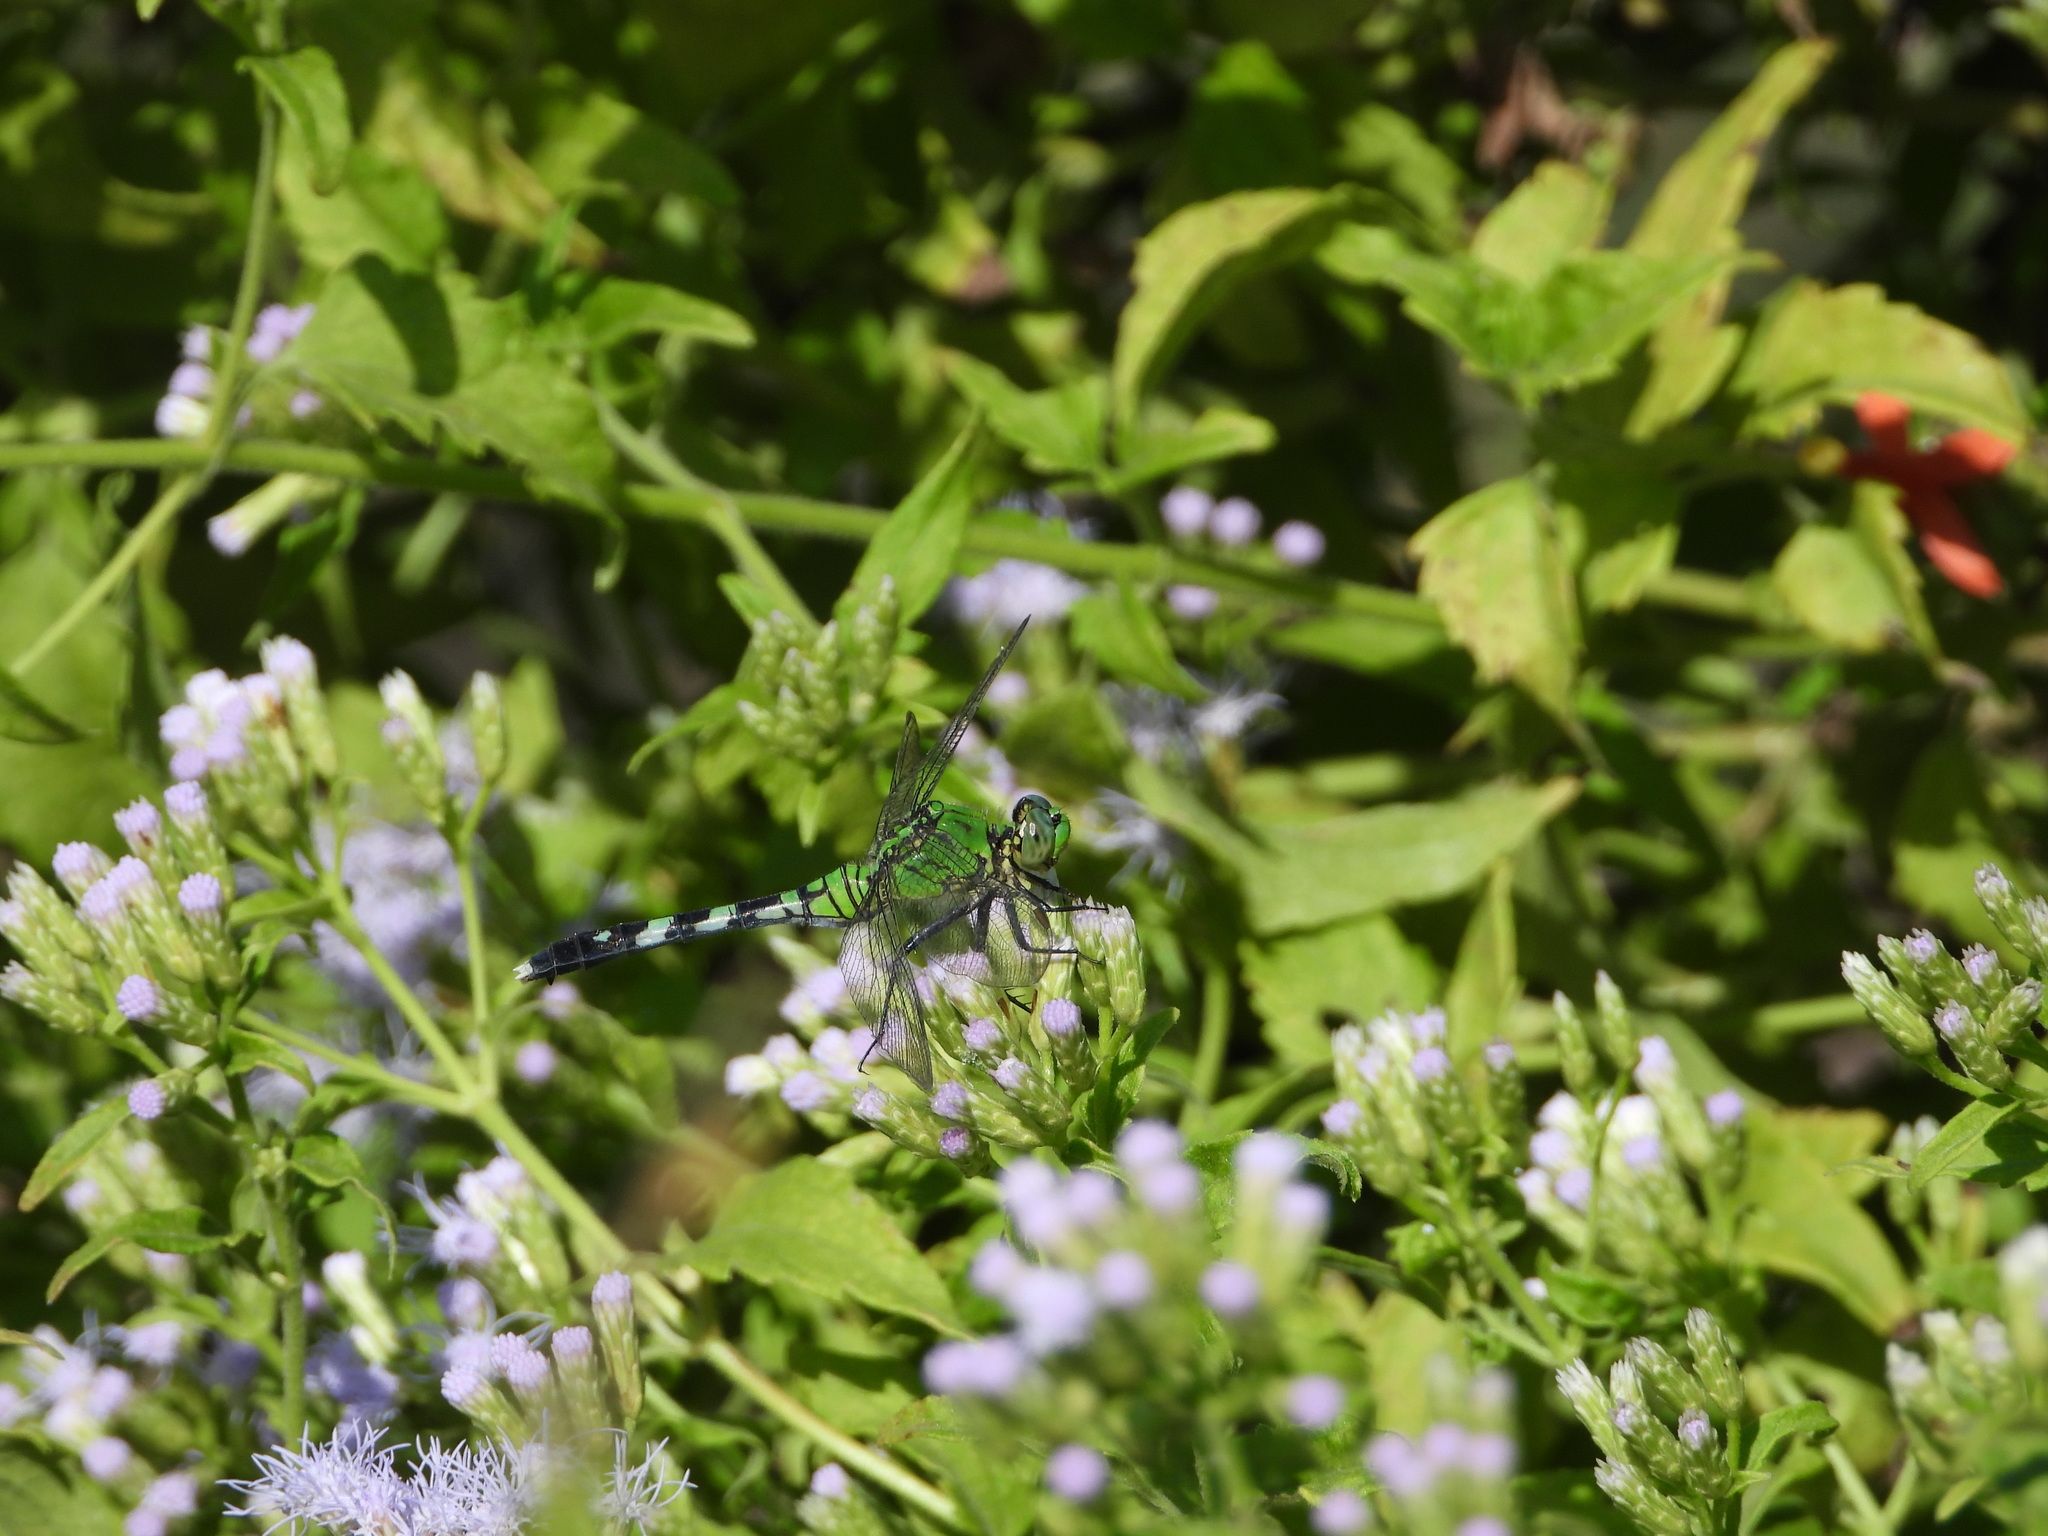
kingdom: Animalia
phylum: Arthropoda
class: Insecta
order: Odonata
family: Libellulidae
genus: Erythemis
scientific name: Erythemis simplicicollis
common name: Eastern pondhawk
